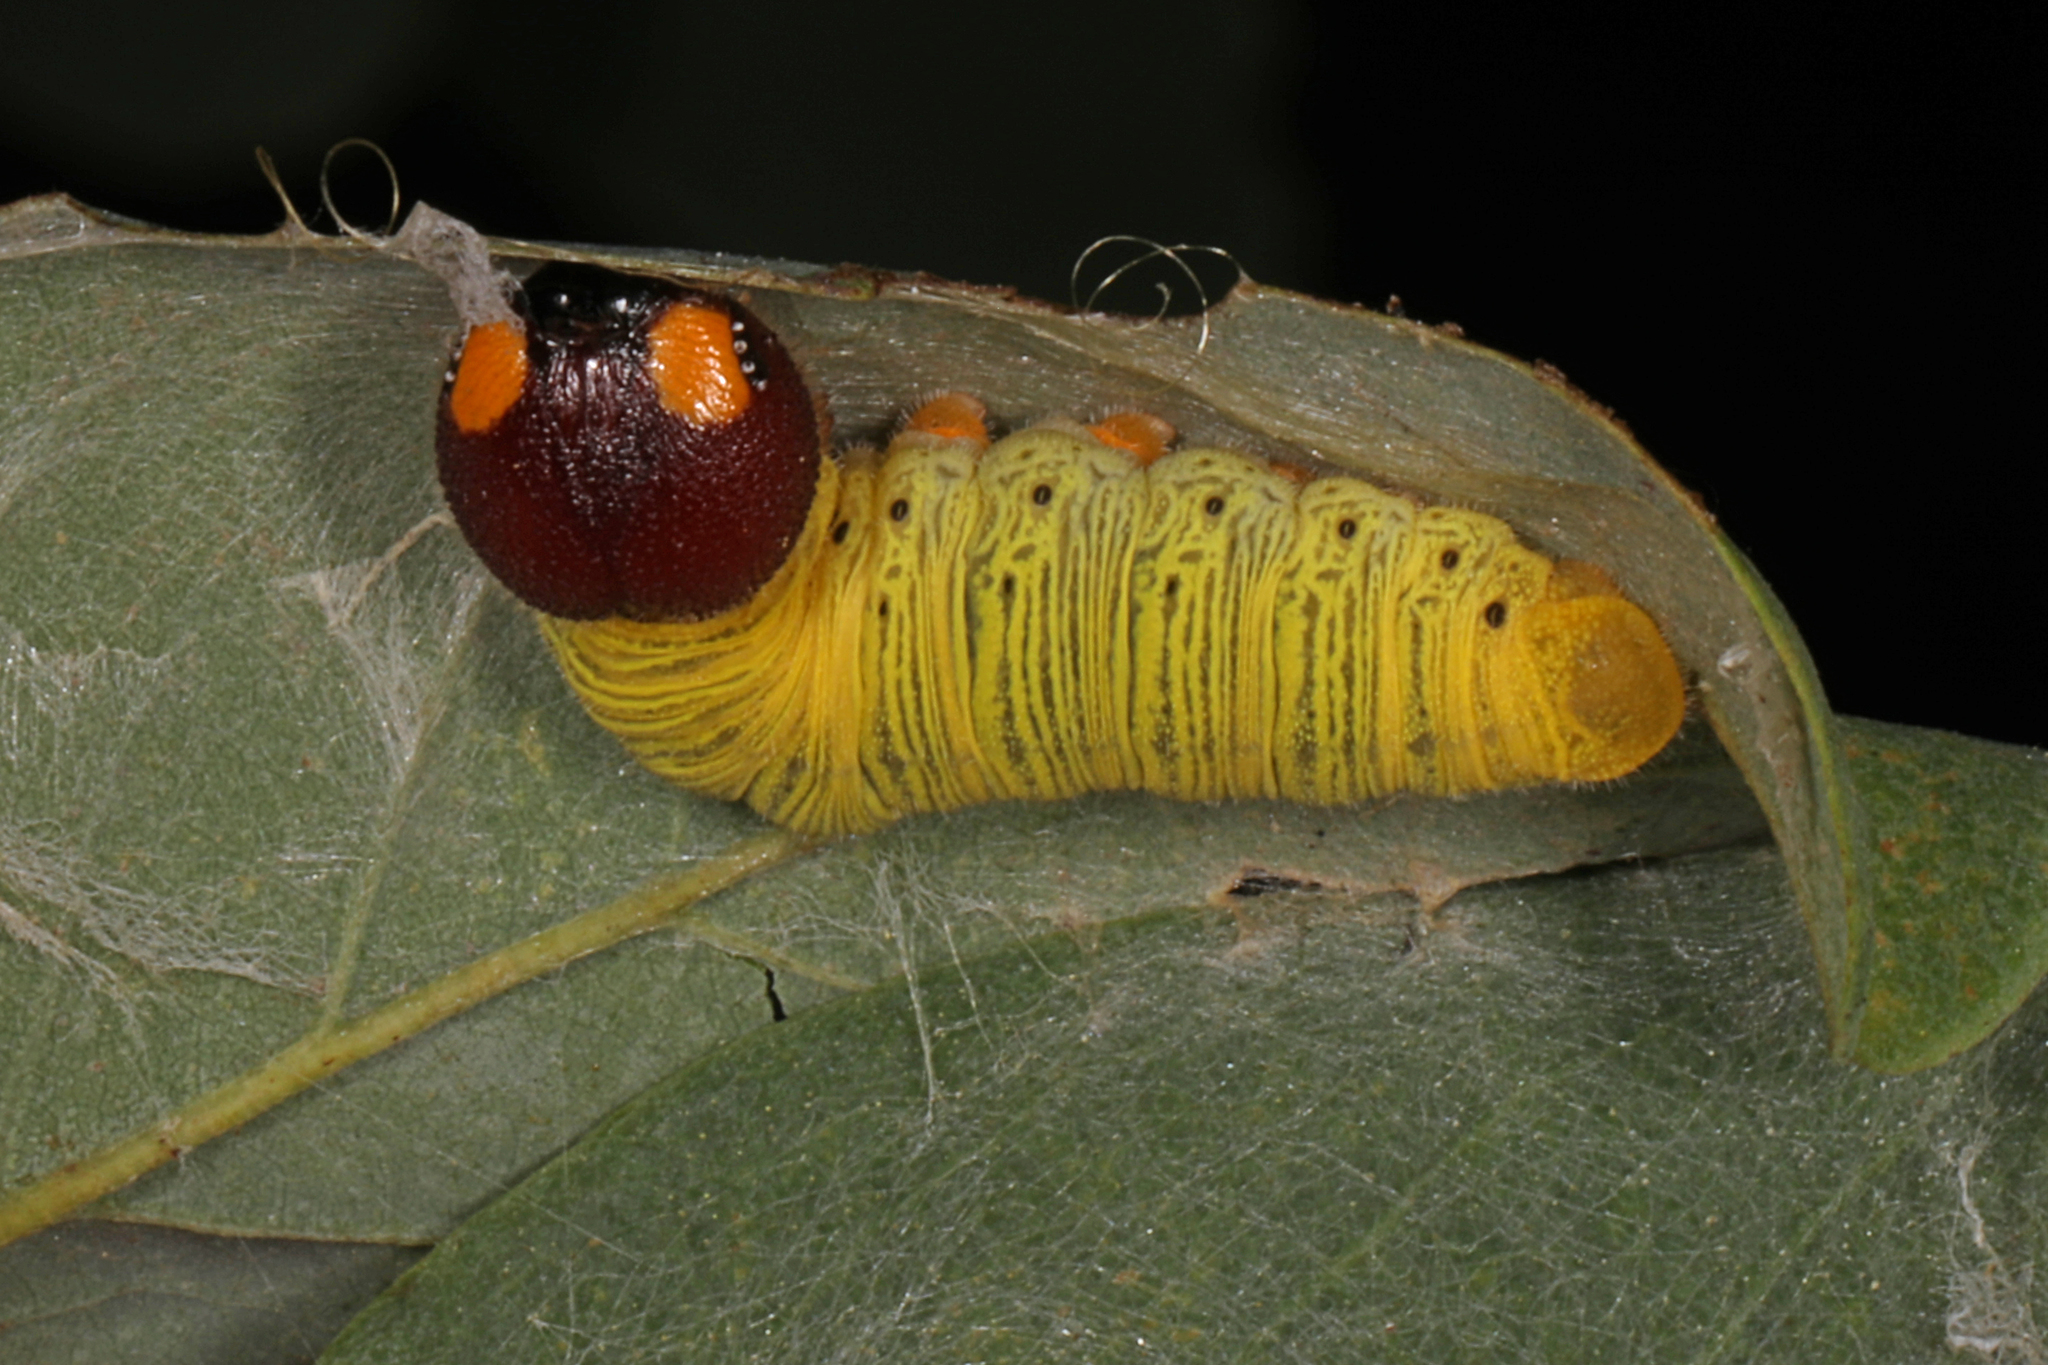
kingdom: Animalia
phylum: Arthropoda
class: Insecta
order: Lepidoptera
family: Hesperiidae
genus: Epargyreus
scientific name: Epargyreus clarus
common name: Silver-spotted skipper
